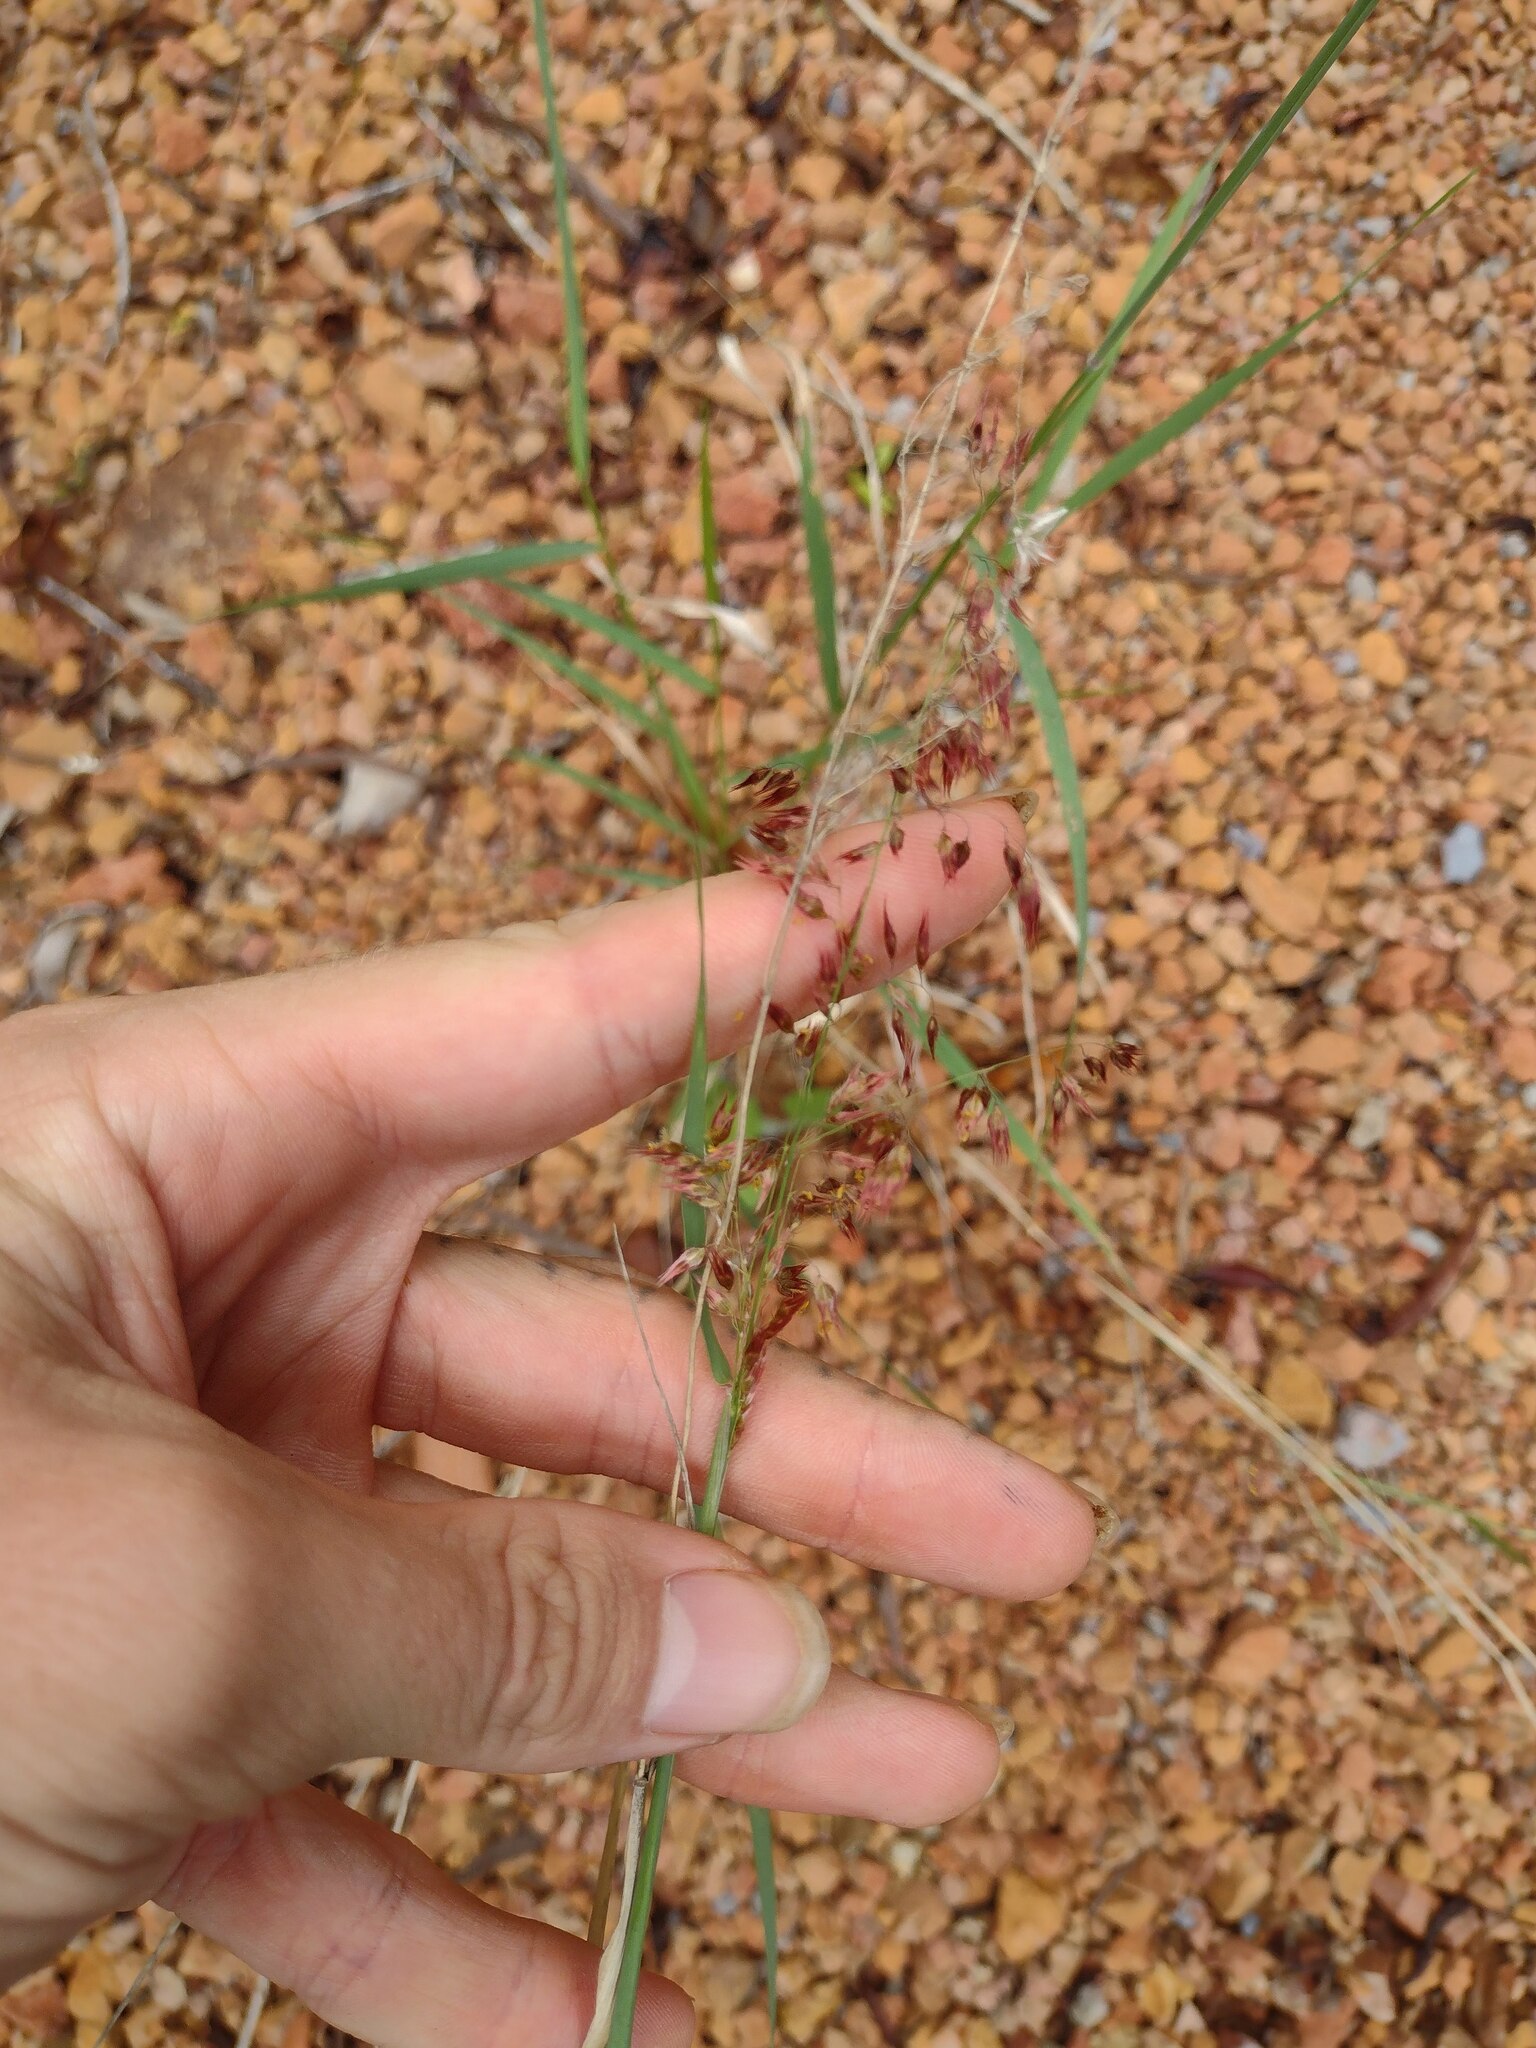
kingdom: Plantae
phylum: Tracheophyta
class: Liliopsida
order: Poales
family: Poaceae
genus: Melinis
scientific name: Melinis repens
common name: Rose natal grass
